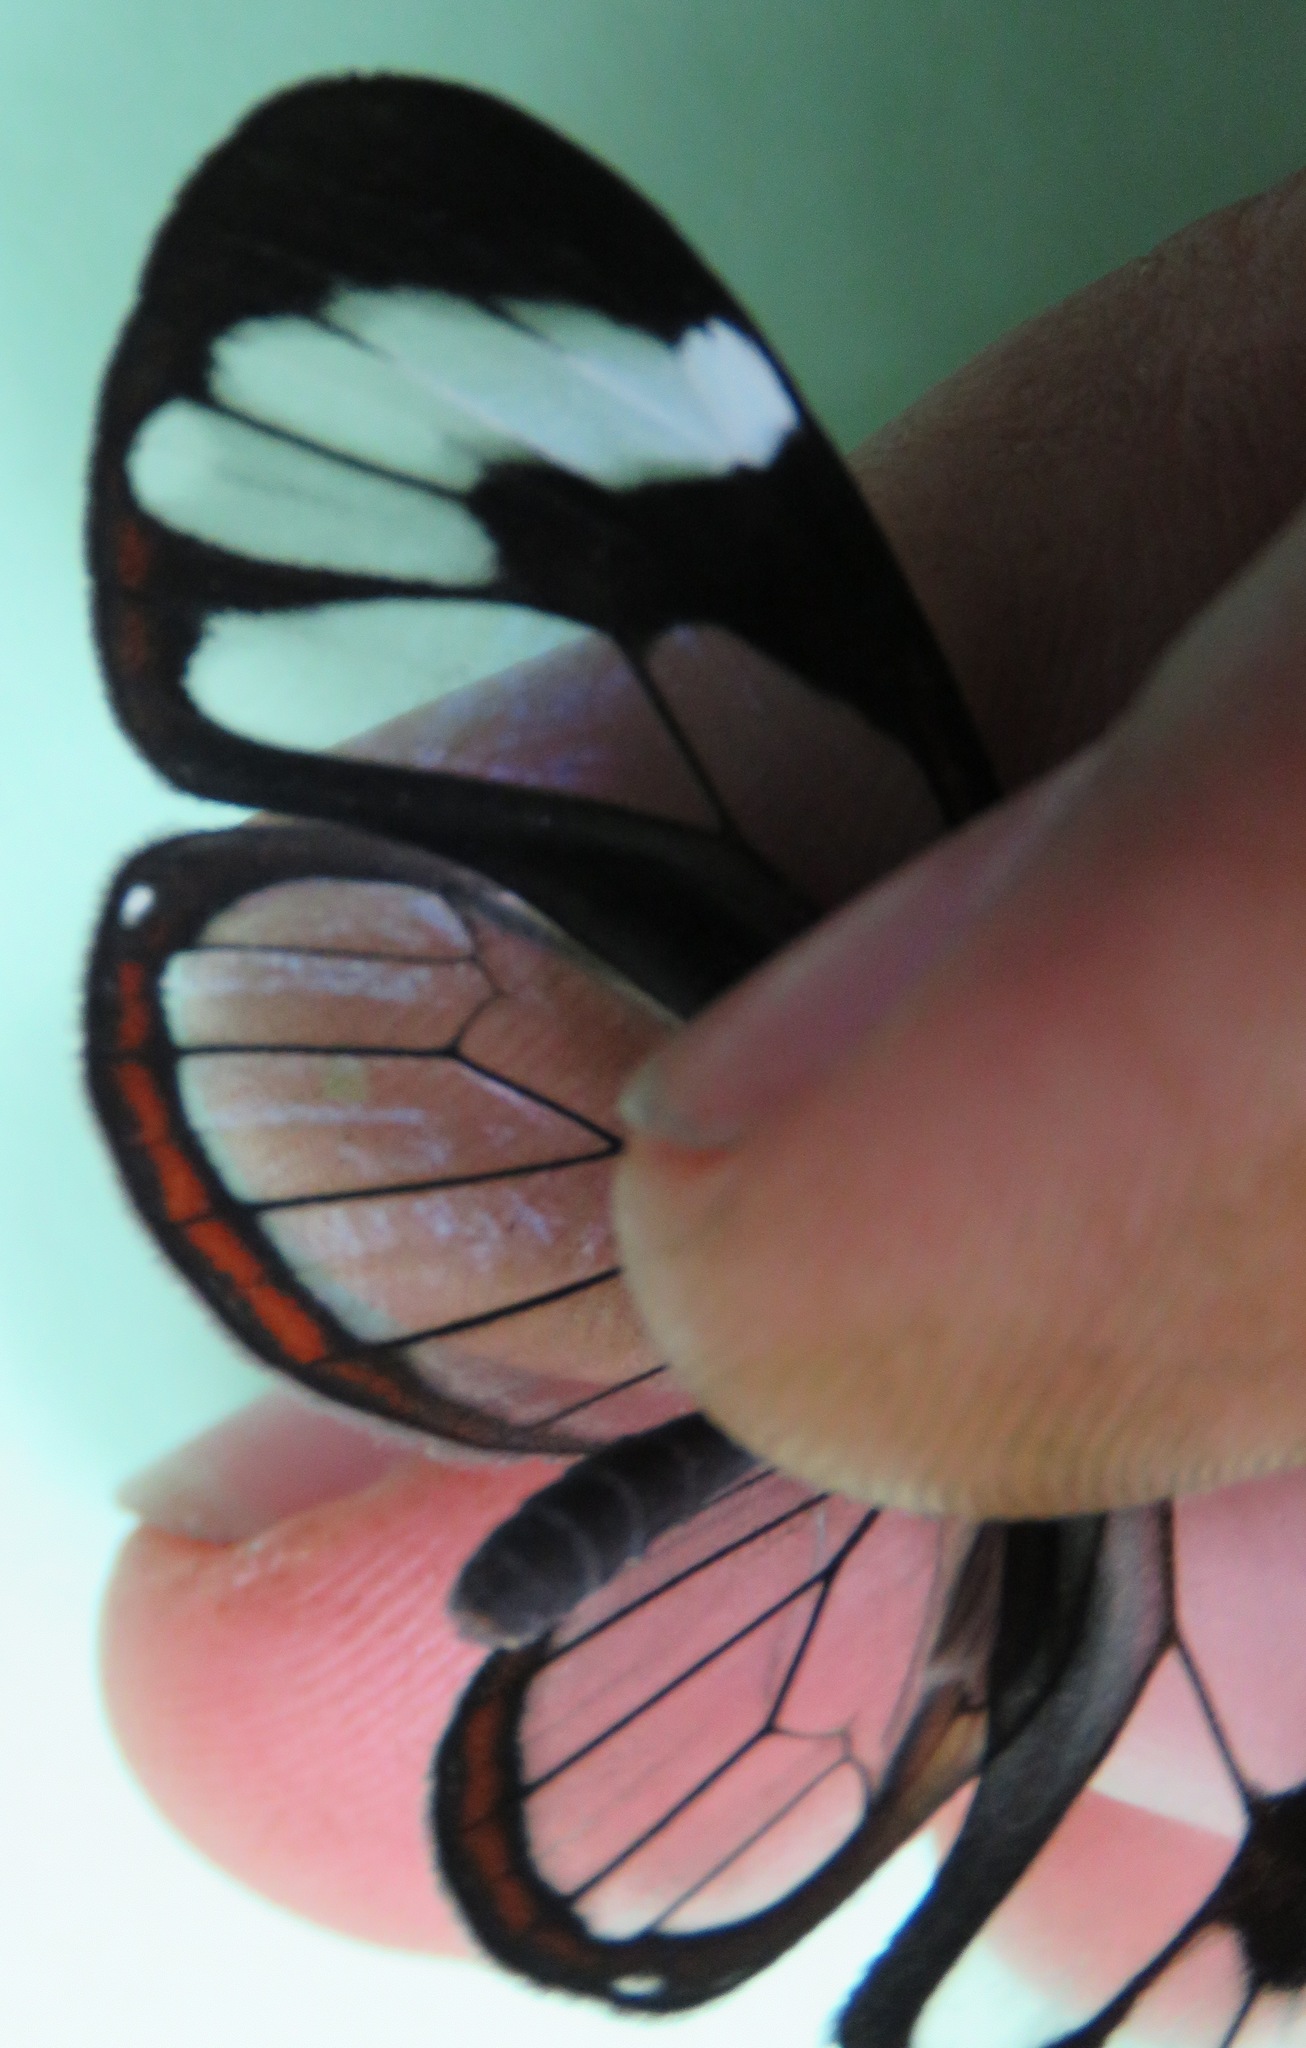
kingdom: Animalia
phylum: Arthropoda
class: Insecta
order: Lepidoptera
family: Nymphalidae
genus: Ithomia
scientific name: Ithomia patilla
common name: Patilla clearwing
